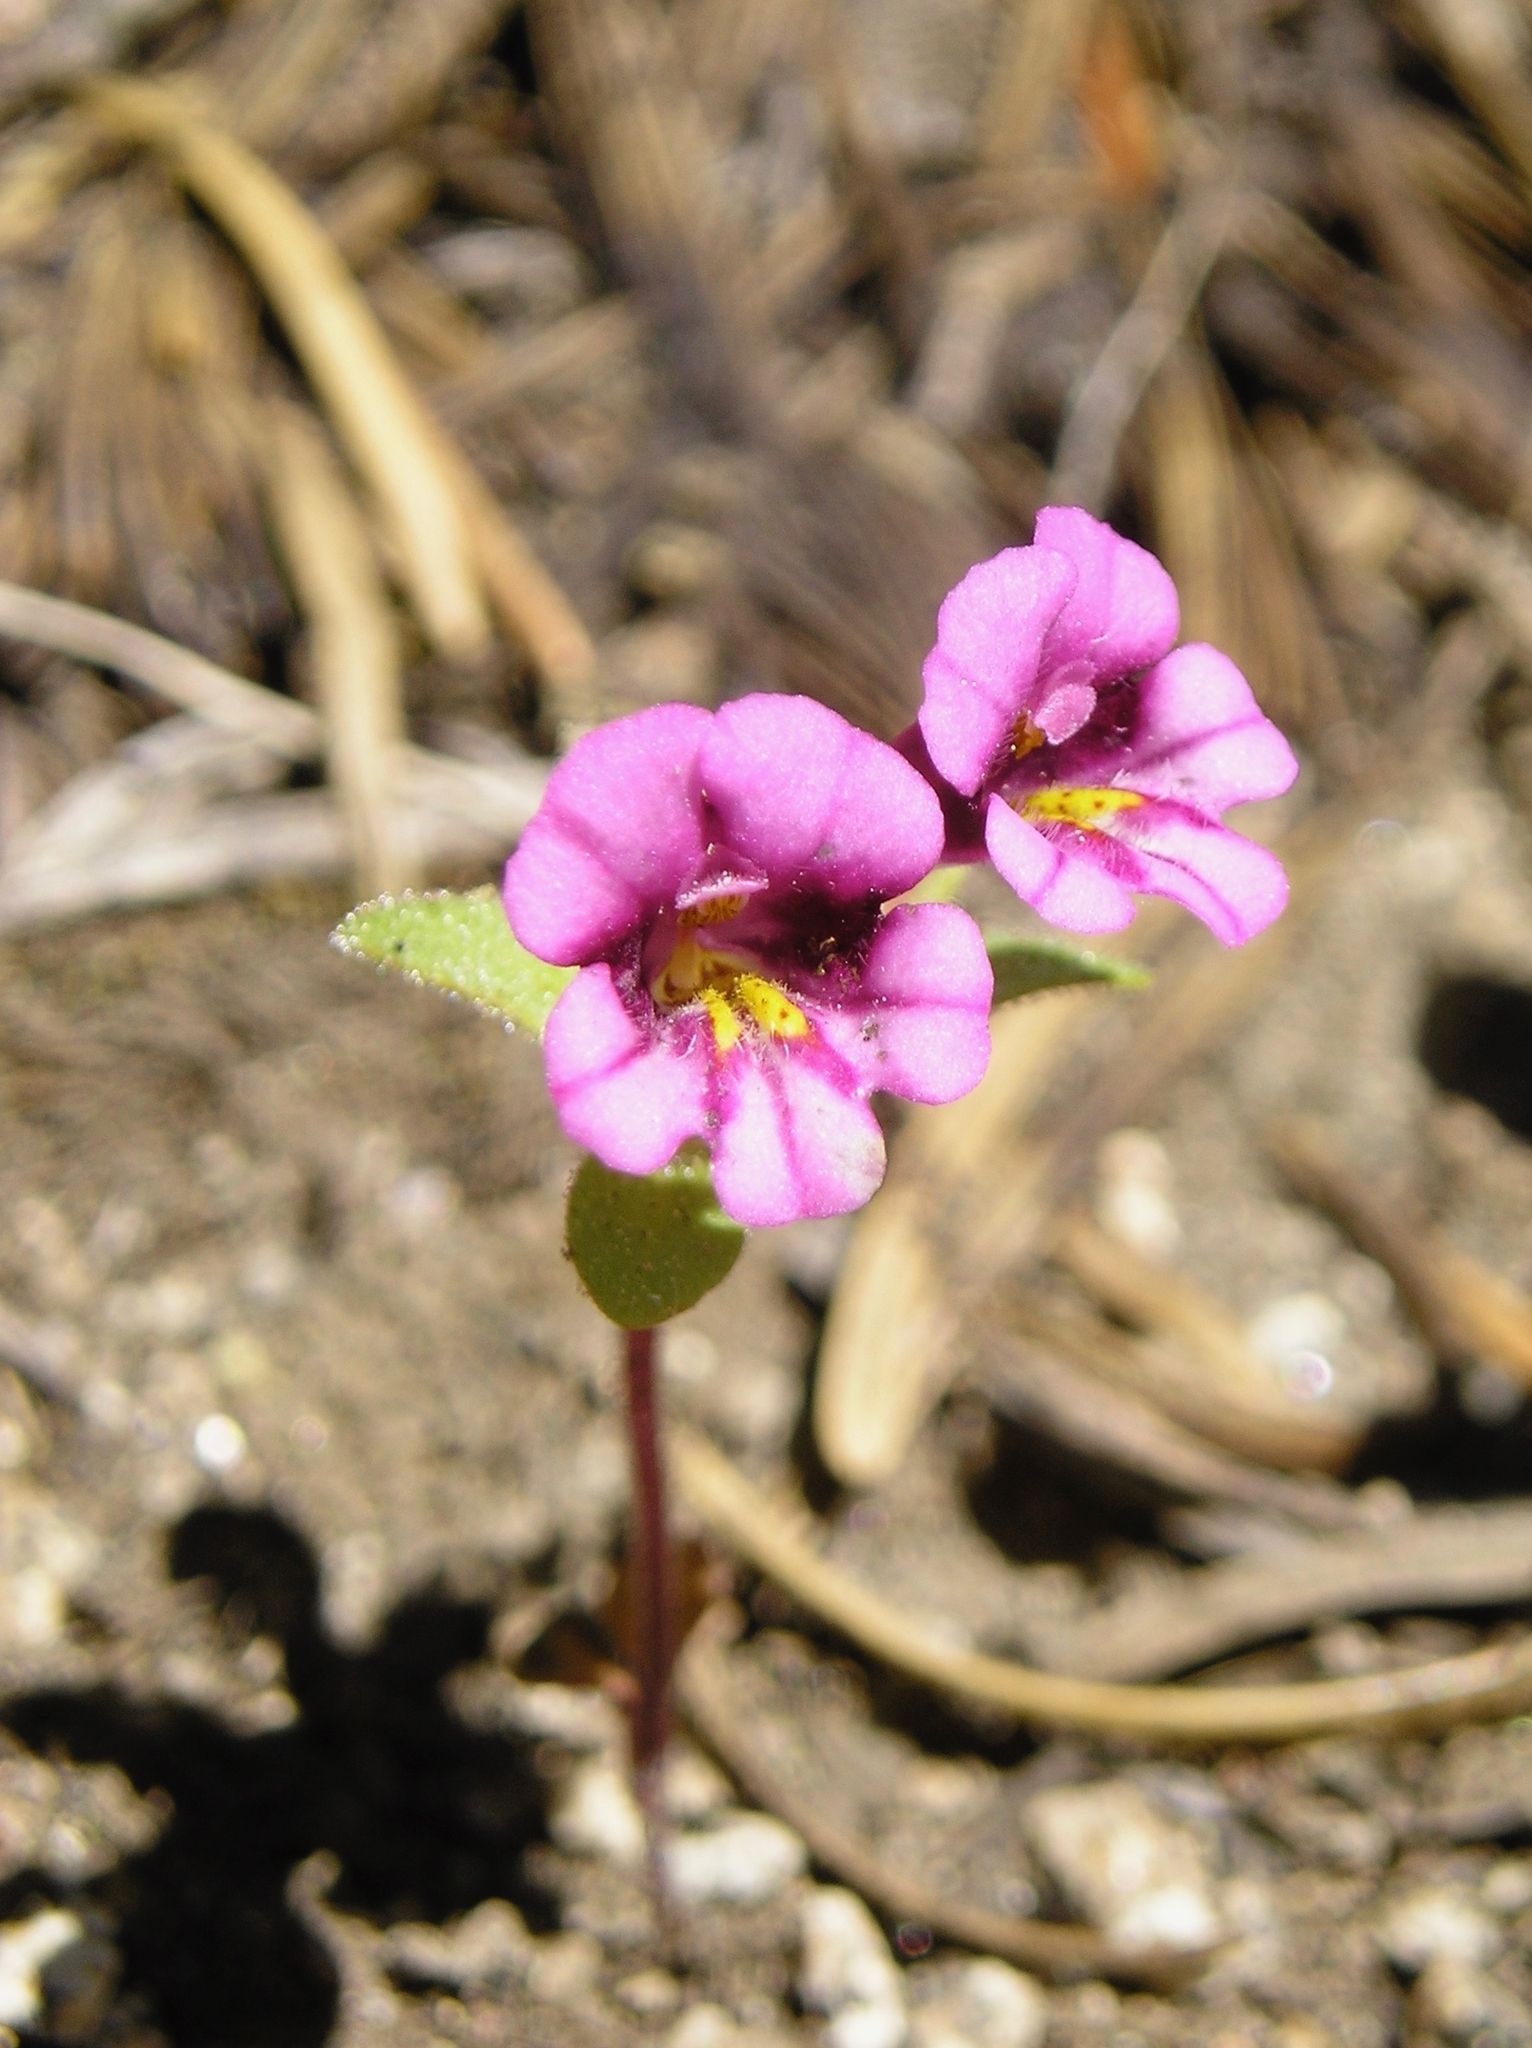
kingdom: Plantae
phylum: Tracheophyta
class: Magnoliopsida
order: Lamiales
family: Phrymaceae
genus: Diplacus
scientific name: Diplacus nanus
